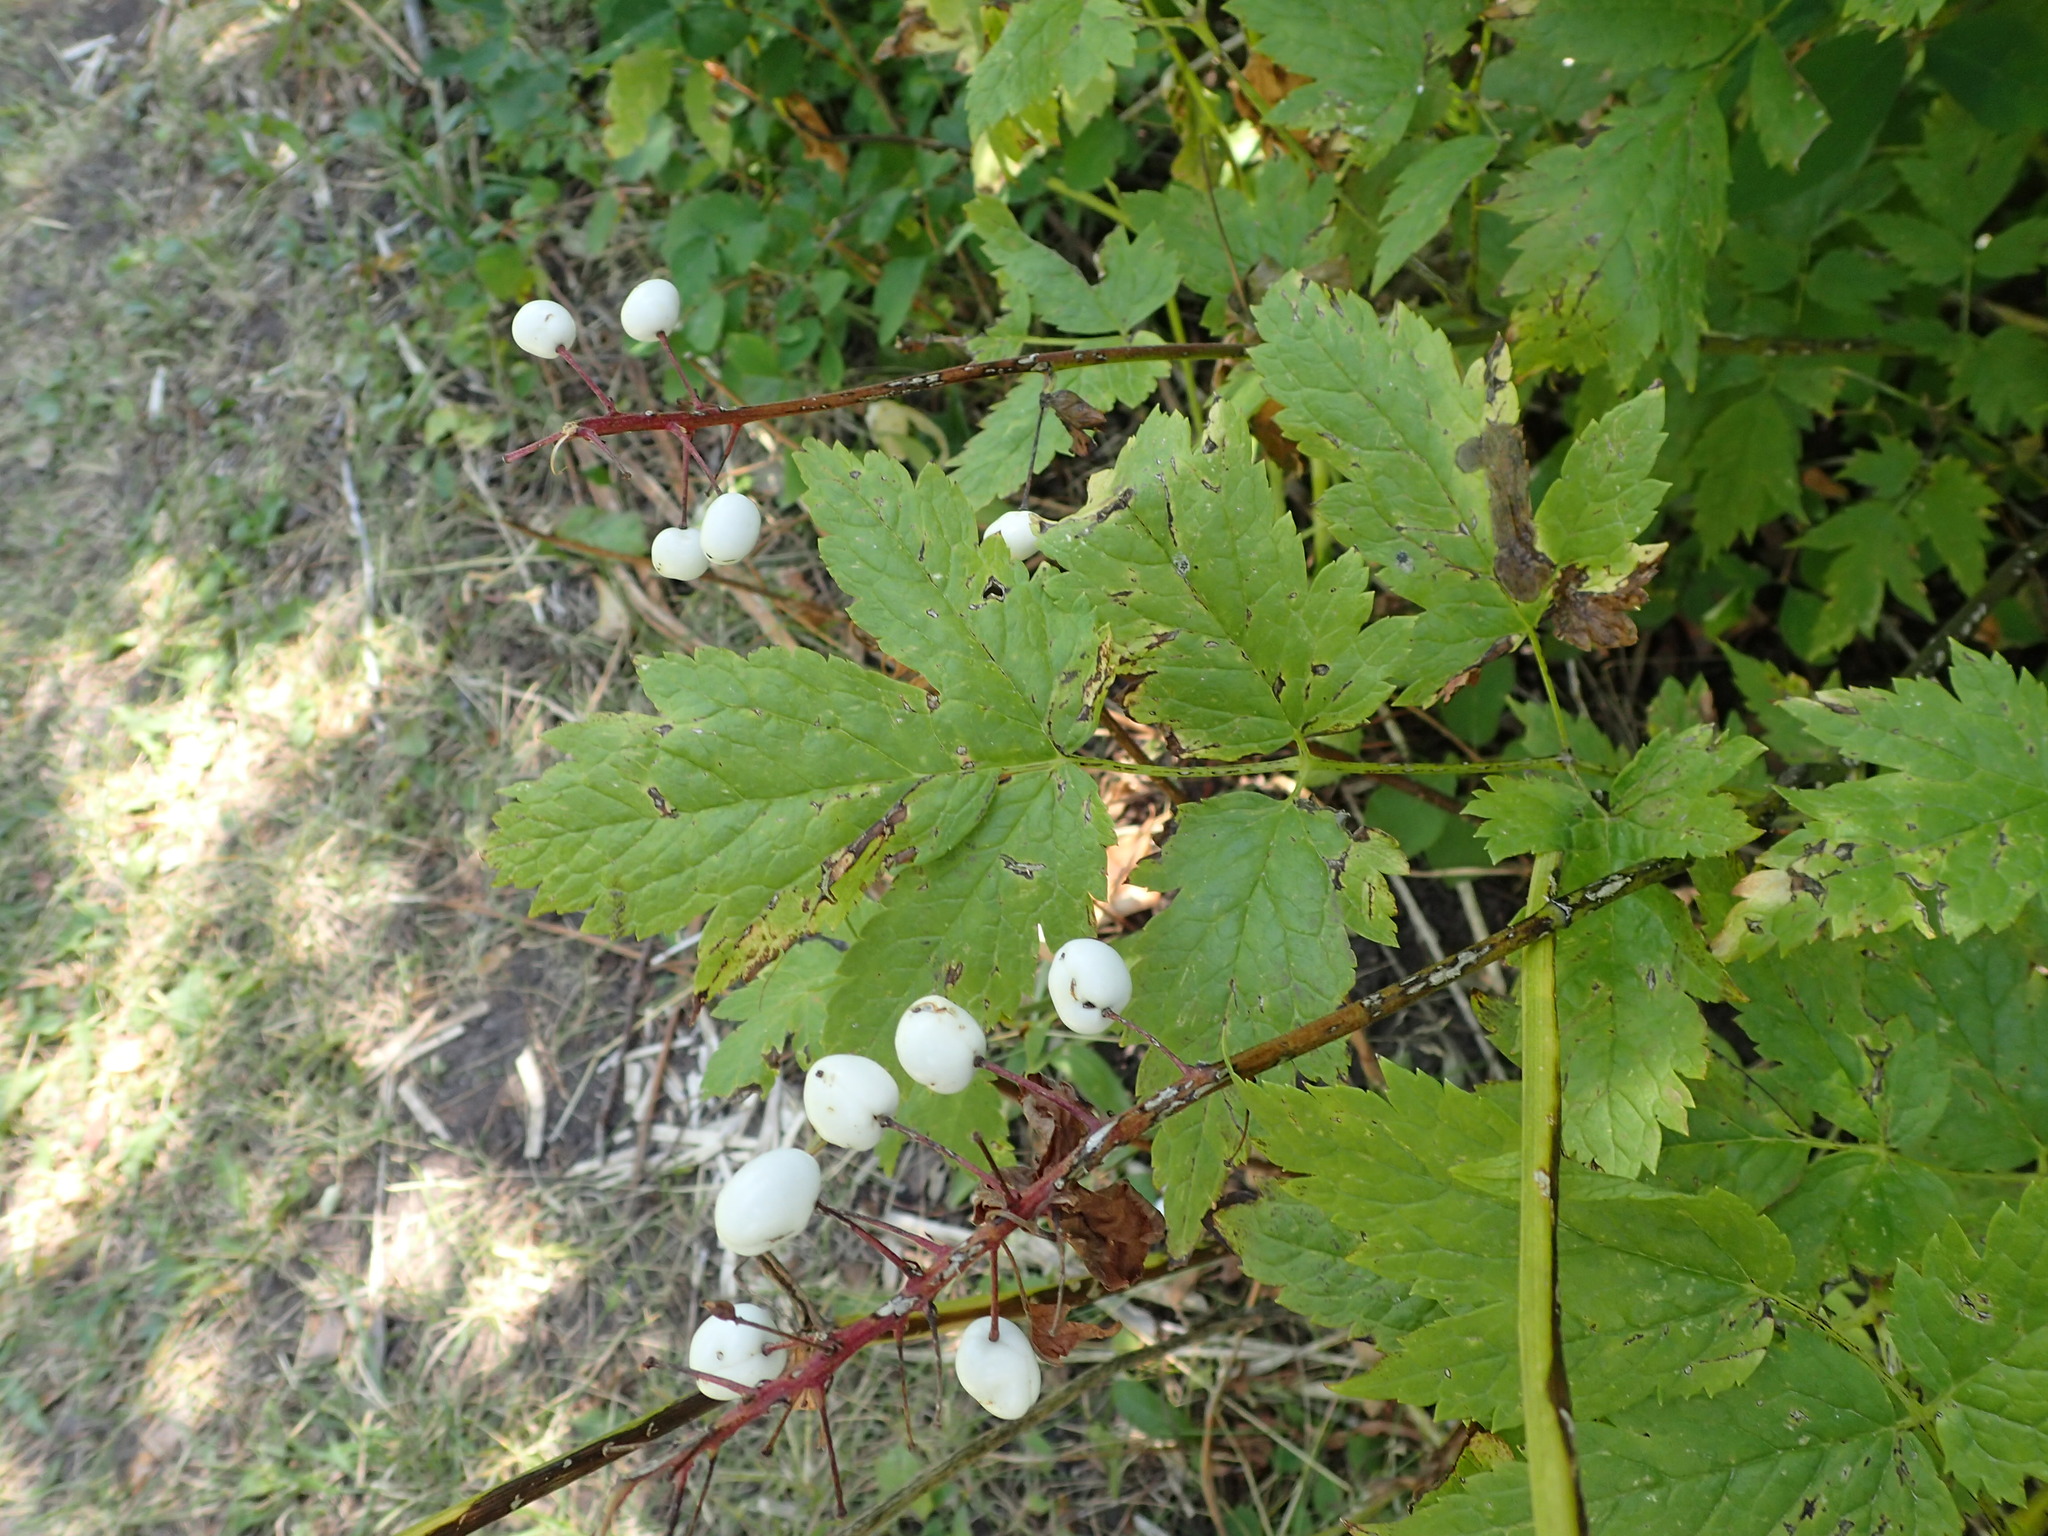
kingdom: Plantae
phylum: Tracheophyta
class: Magnoliopsida
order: Ranunculales
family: Ranunculaceae
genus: Actaea
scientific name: Actaea rubra
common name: Red baneberry
